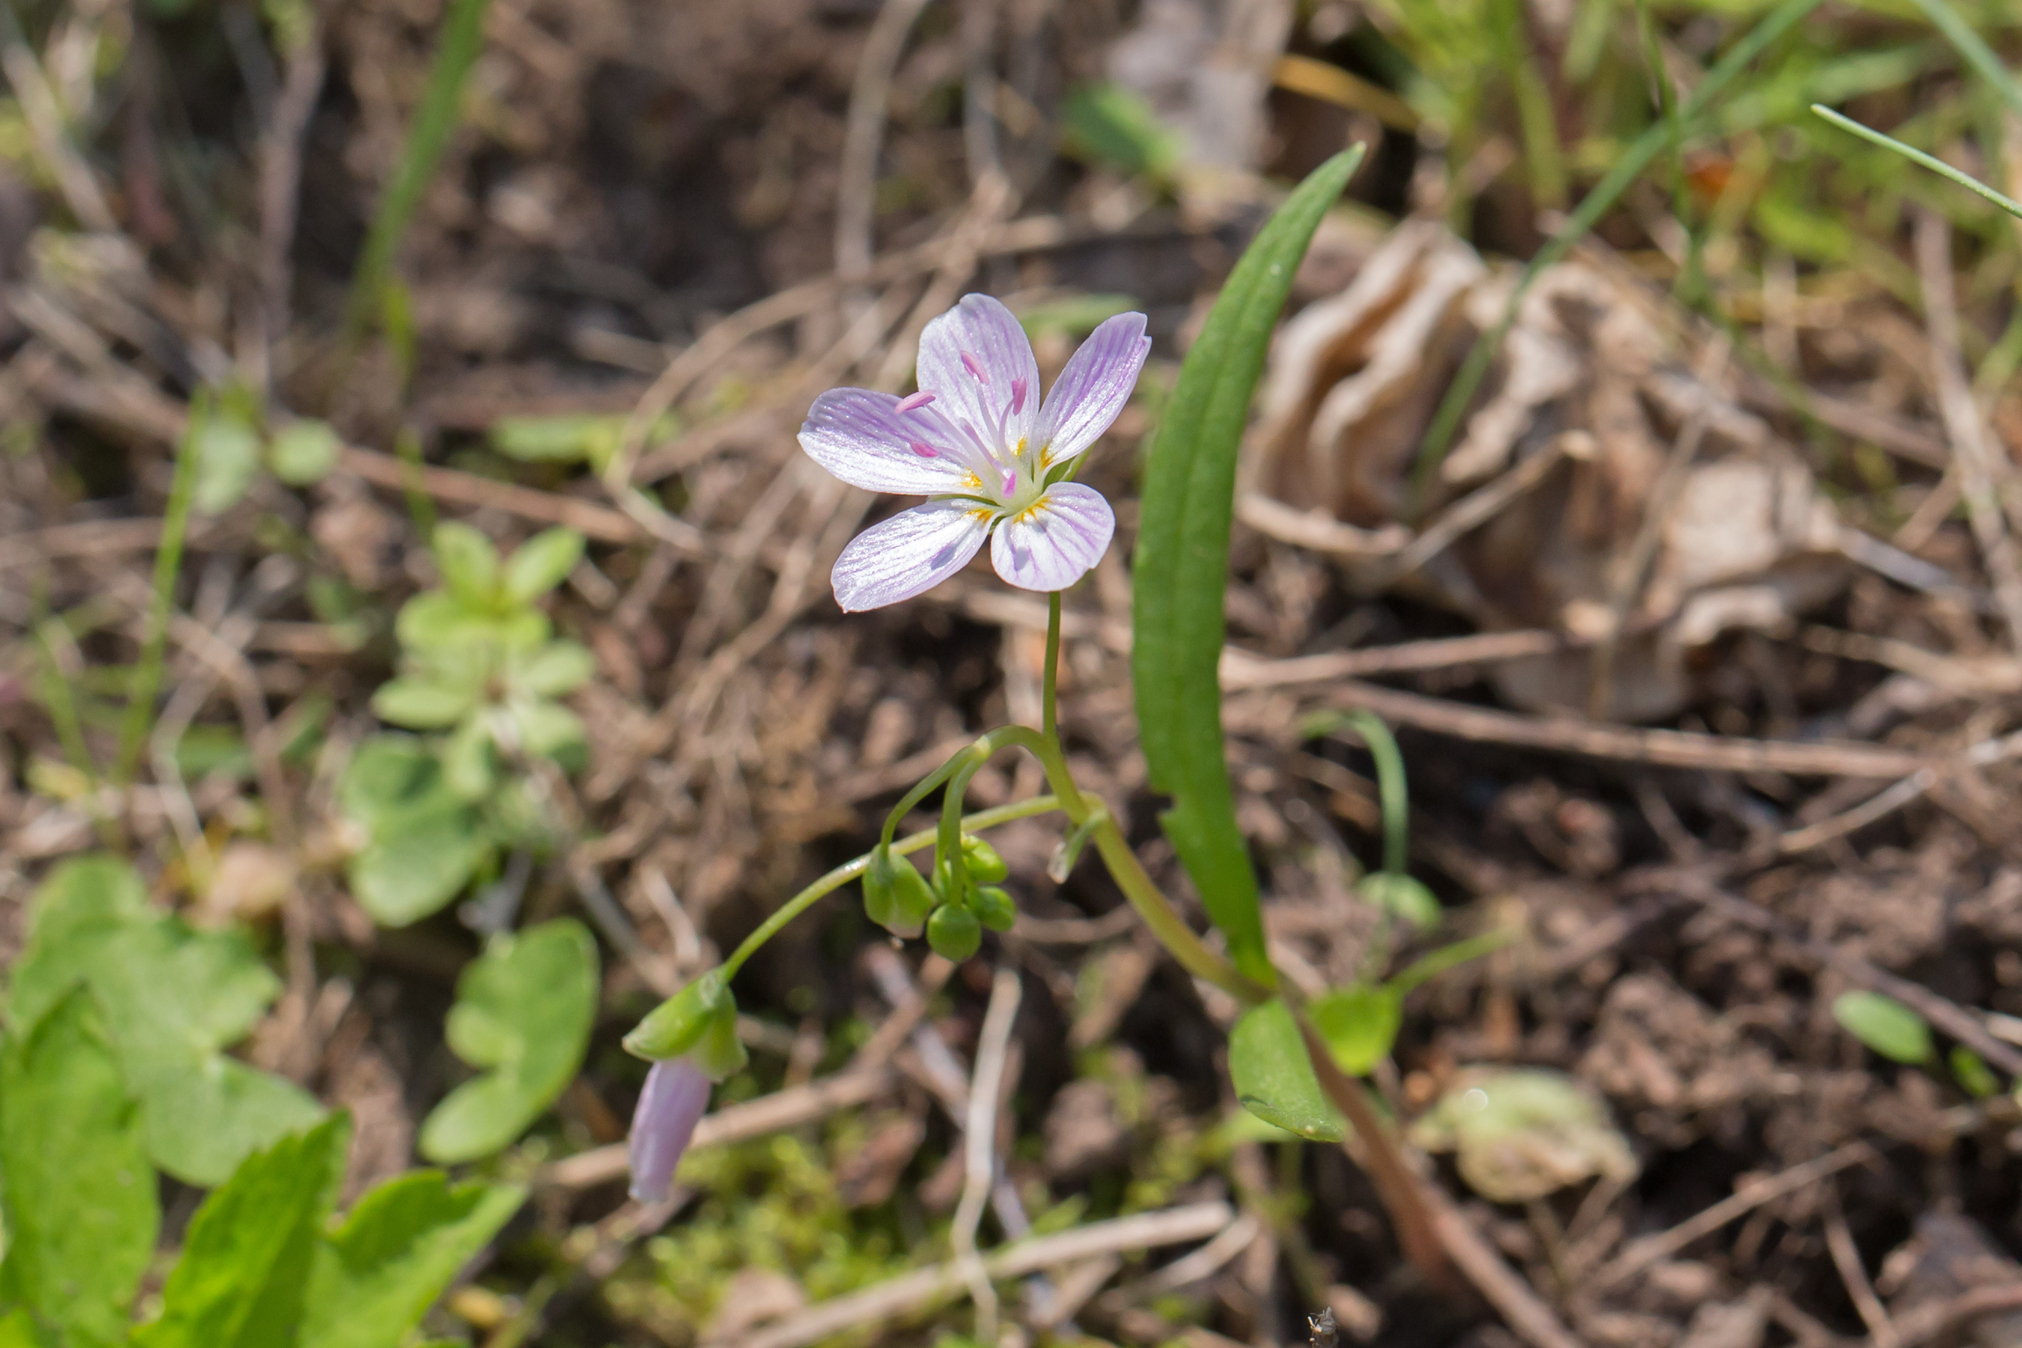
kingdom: Plantae
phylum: Tracheophyta
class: Magnoliopsida
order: Caryophyllales
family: Montiaceae
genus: Claytonia
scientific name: Claytonia virginica
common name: Virginia springbeauty
